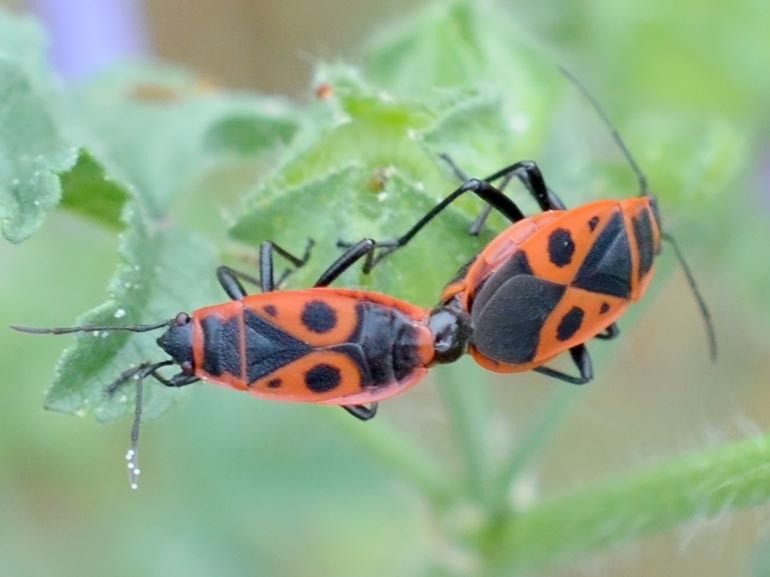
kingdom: Animalia
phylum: Arthropoda
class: Insecta
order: Hemiptera
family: Pyrrhocoridae
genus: Pyrrhocoris
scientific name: Pyrrhocoris apterus
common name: Firebug
